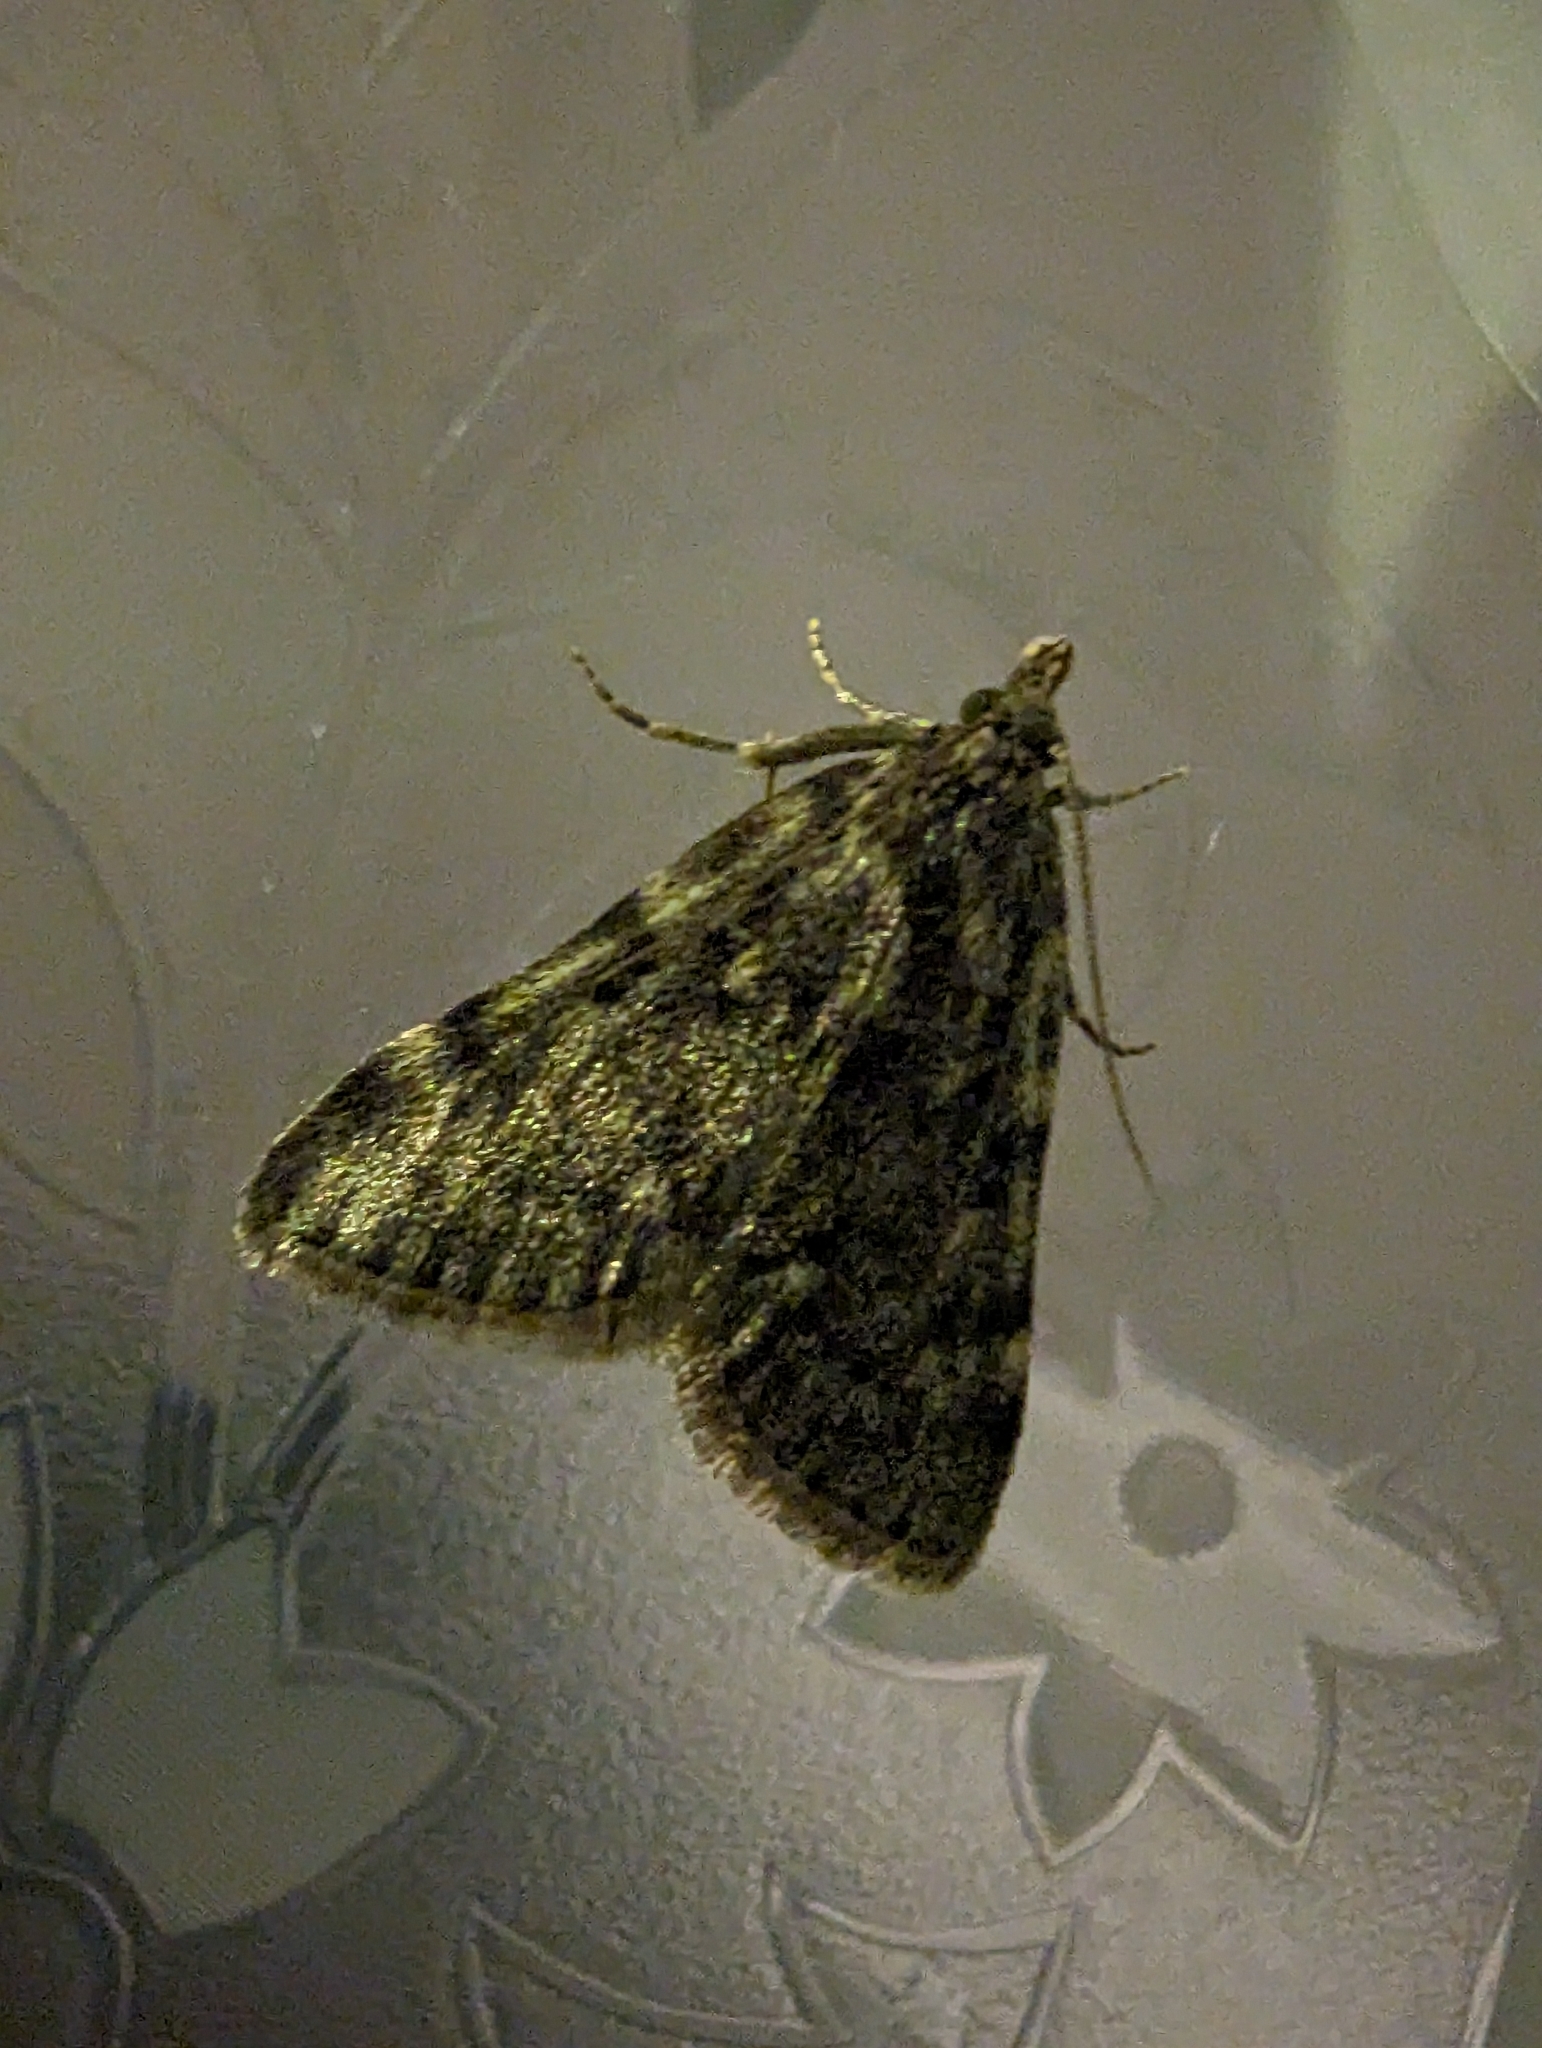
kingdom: Animalia
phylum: Arthropoda
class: Insecta
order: Lepidoptera
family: Pyralidae
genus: Aglossa
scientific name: Aglossa pinguinalis
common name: Large tabby
